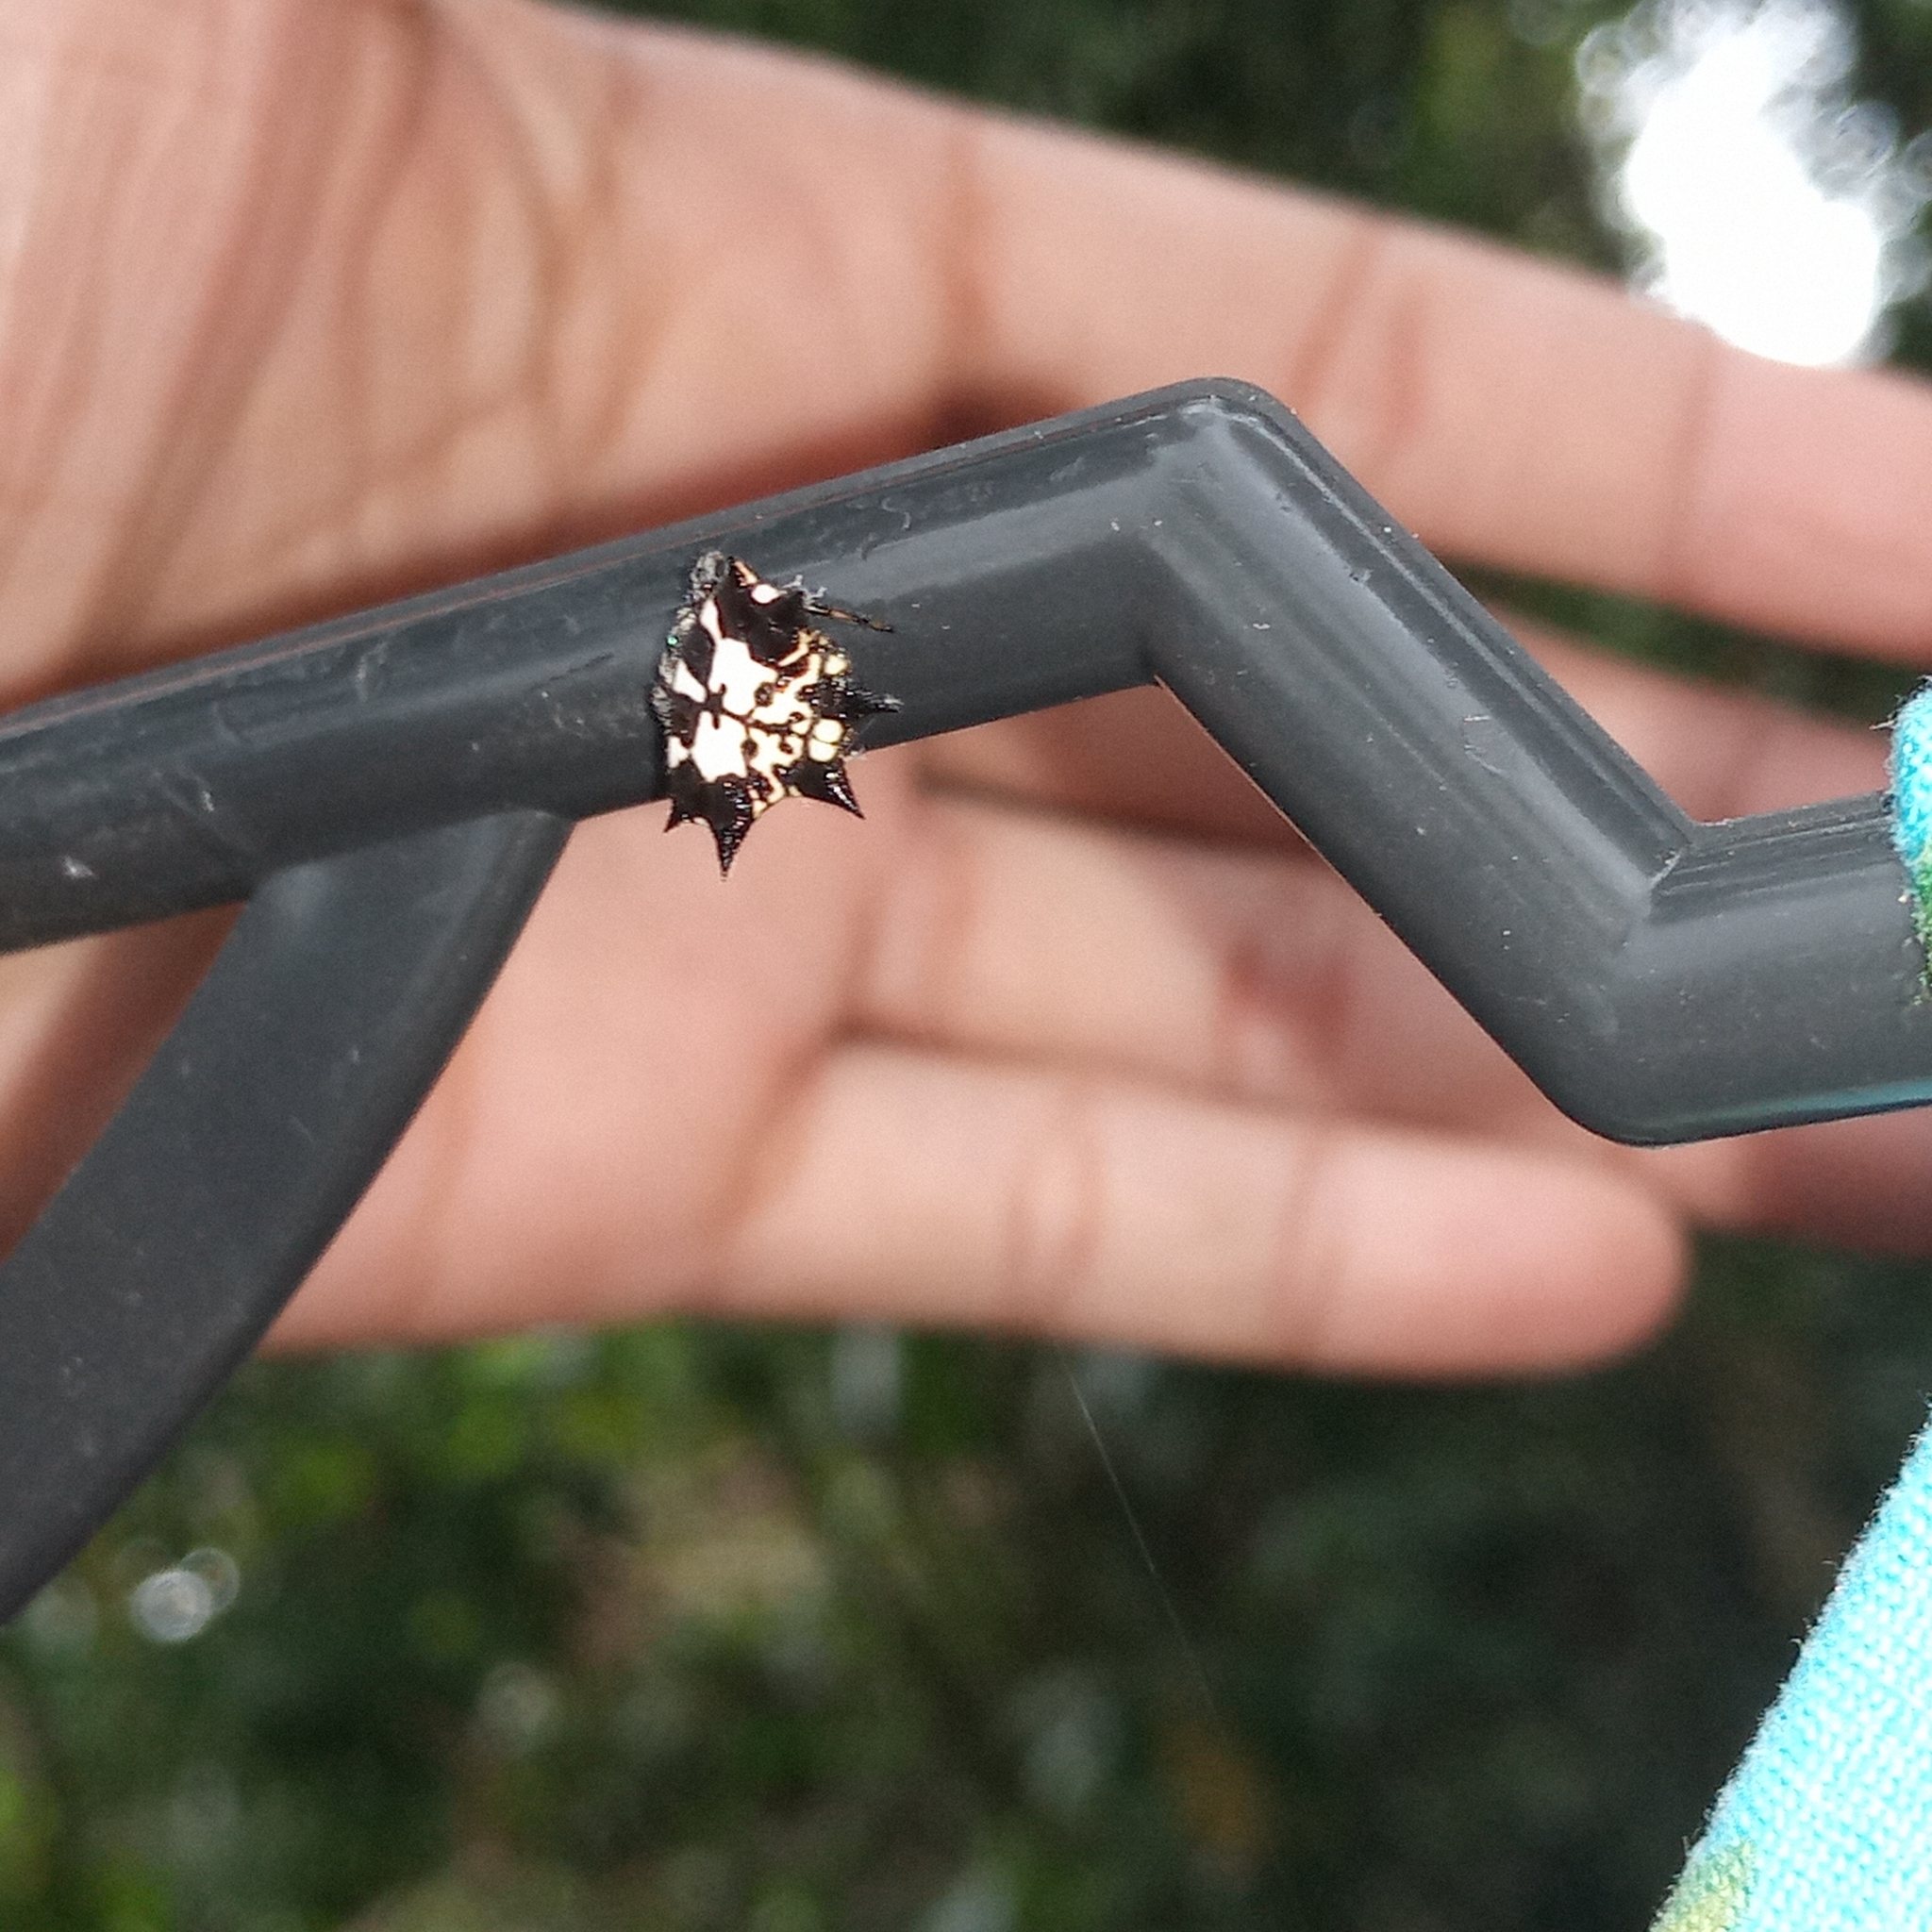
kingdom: Animalia
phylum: Arthropoda
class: Arachnida
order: Araneae
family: Araneidae
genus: Gasteracantha
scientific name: Gasteracantha kuhli
